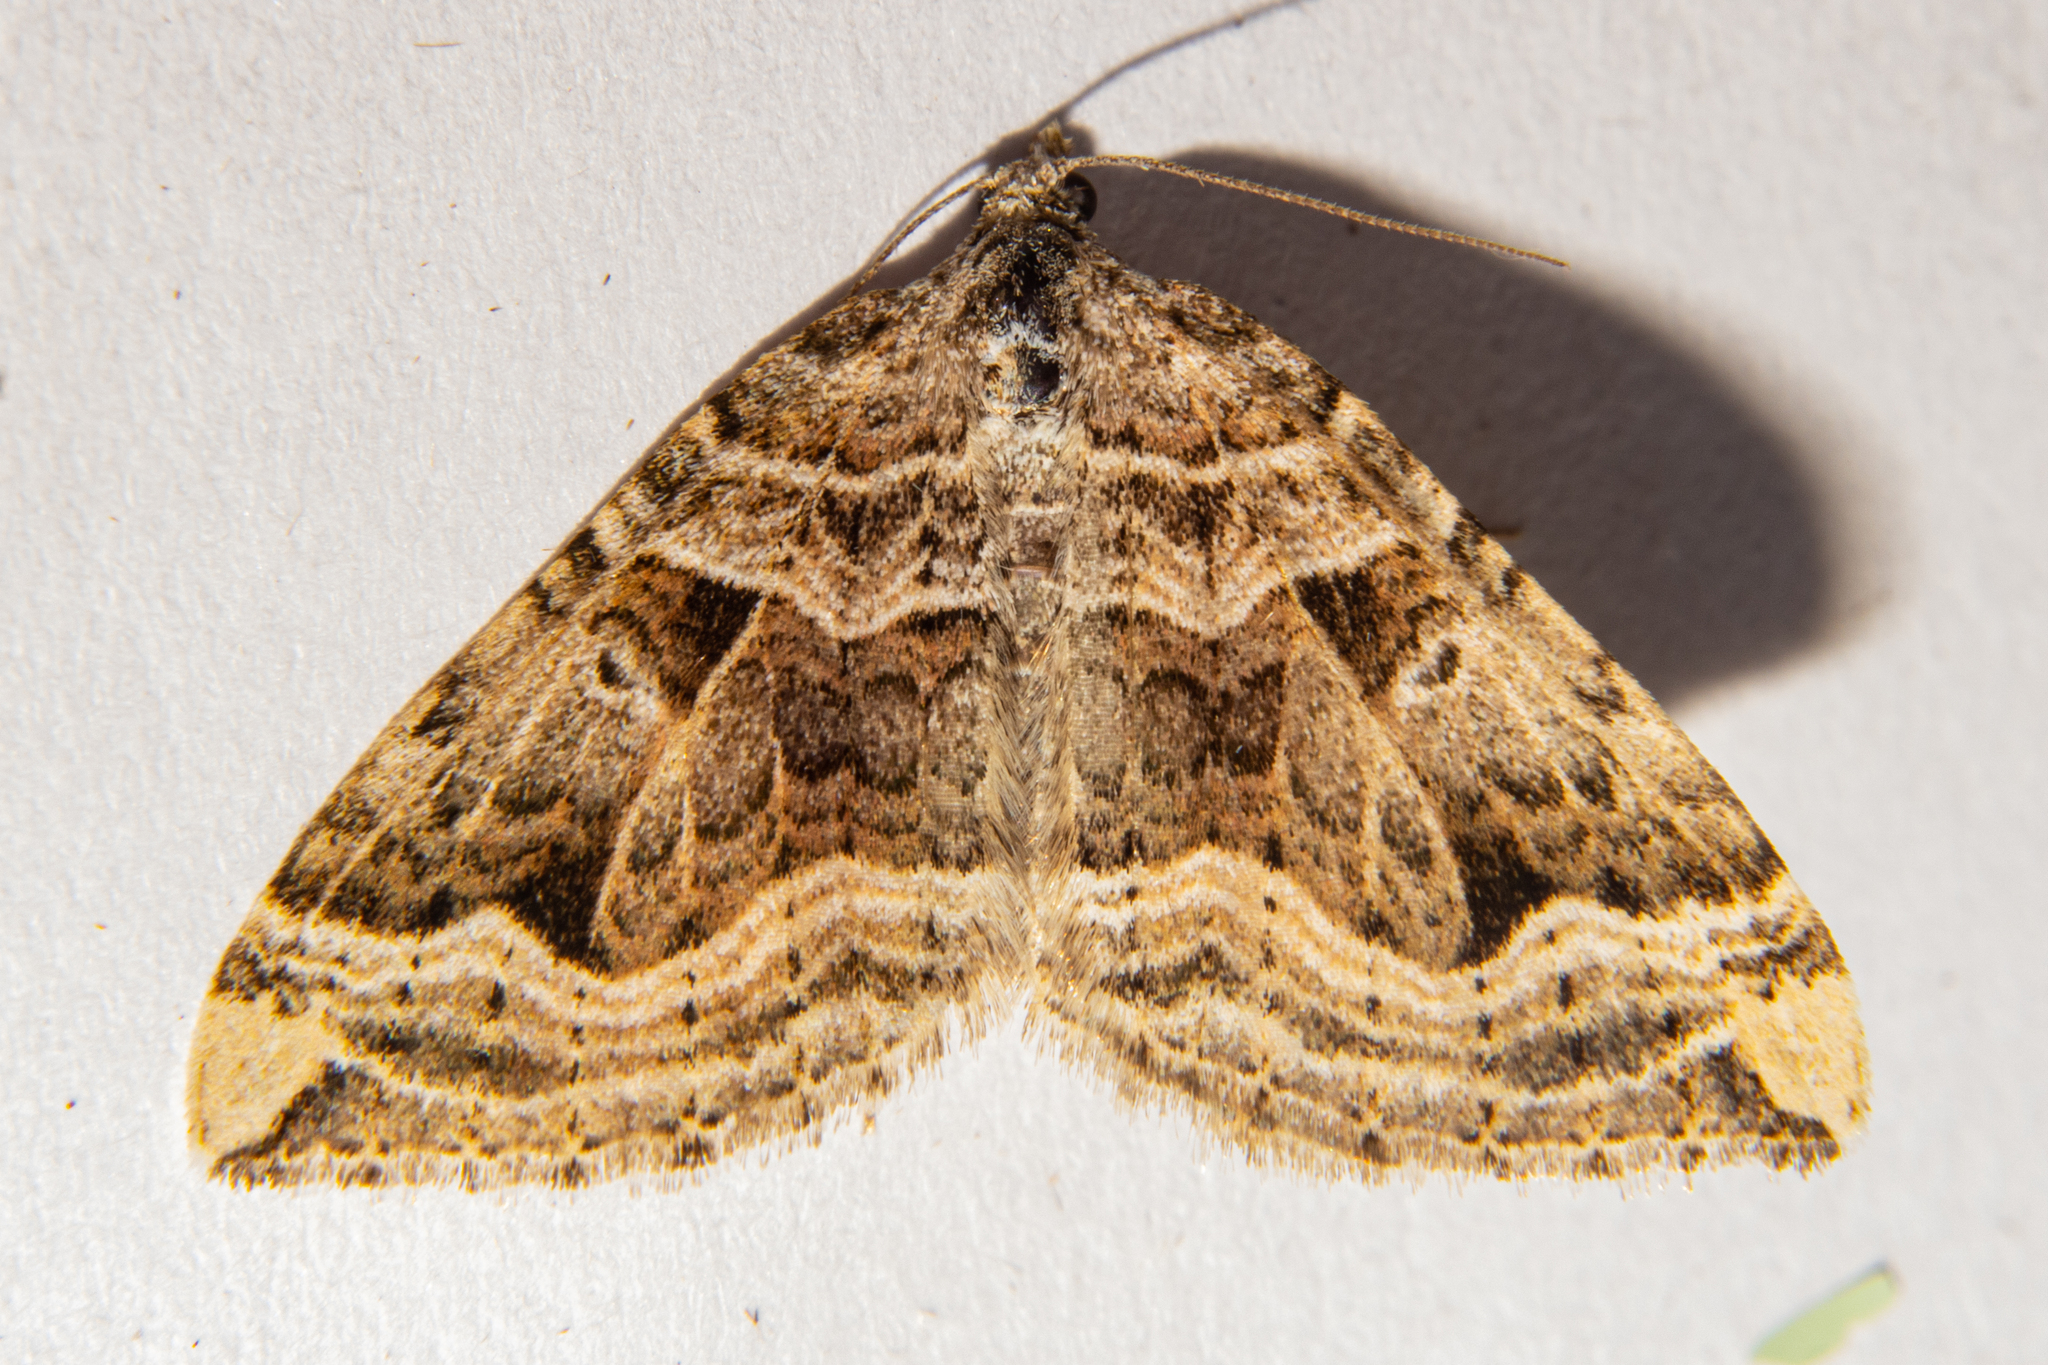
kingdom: Animalia
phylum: Arthropoda
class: Insecta
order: Lepidoptera
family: Geometridae
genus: Xanthorhoe
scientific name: Xanthorhoe semifissata
